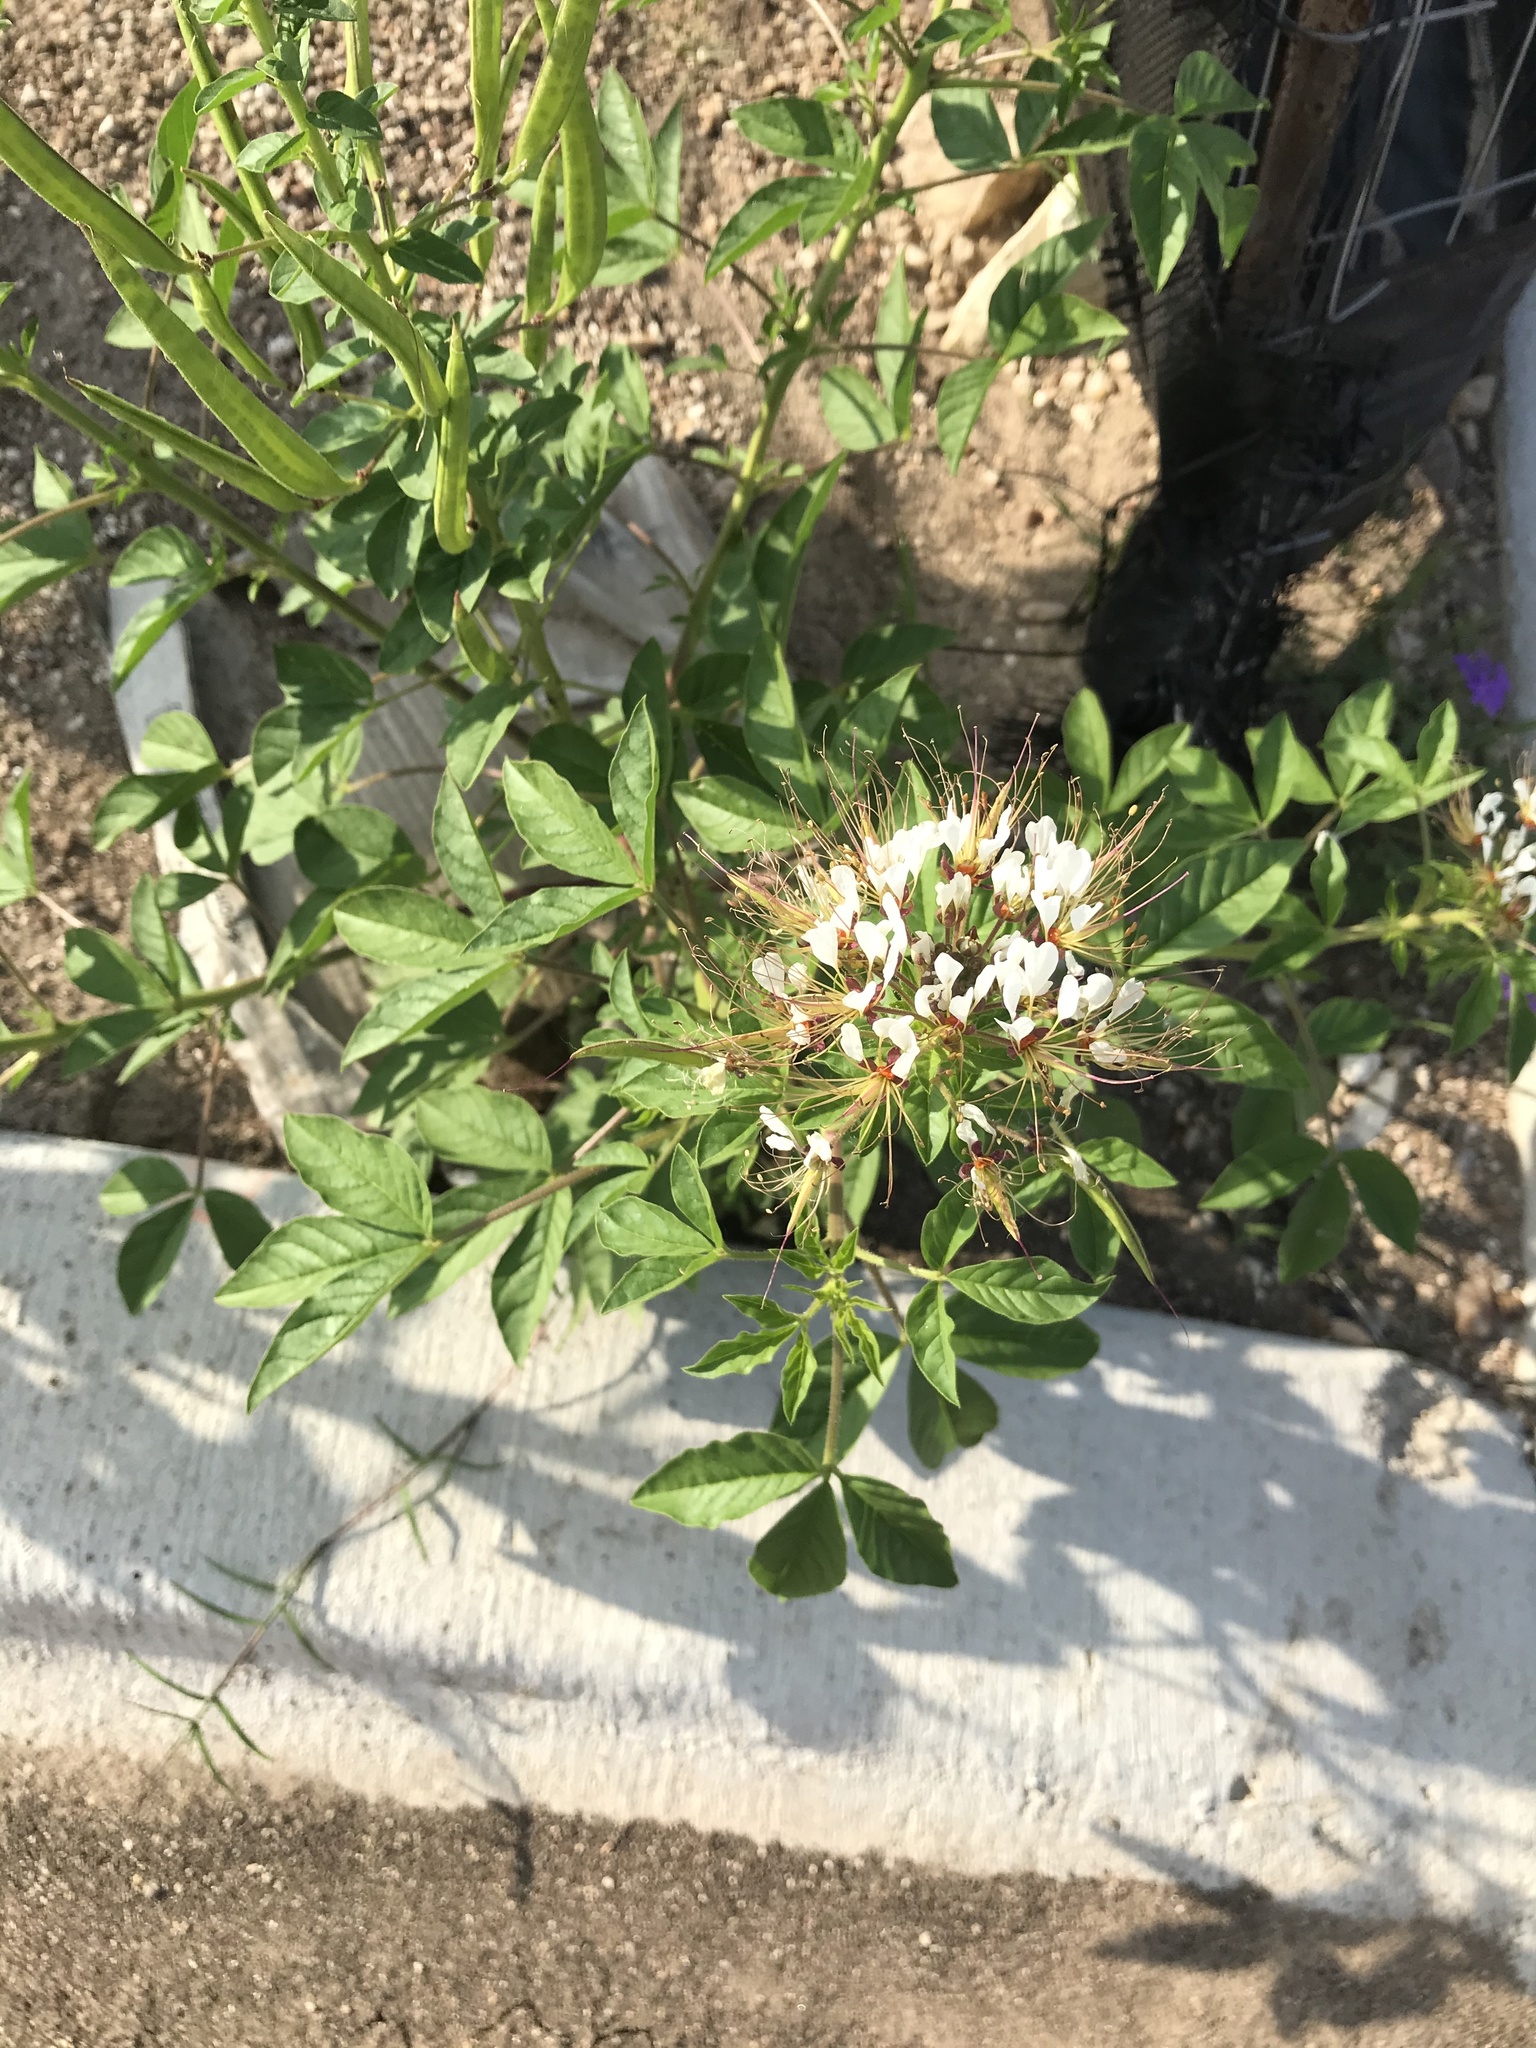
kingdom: Plantae
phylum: Tracheophyta
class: Magnoliopsida
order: Brassicales
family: Cleomaceae
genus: Polanisia
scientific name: Polanisia dodecandra
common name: Clammyweed
